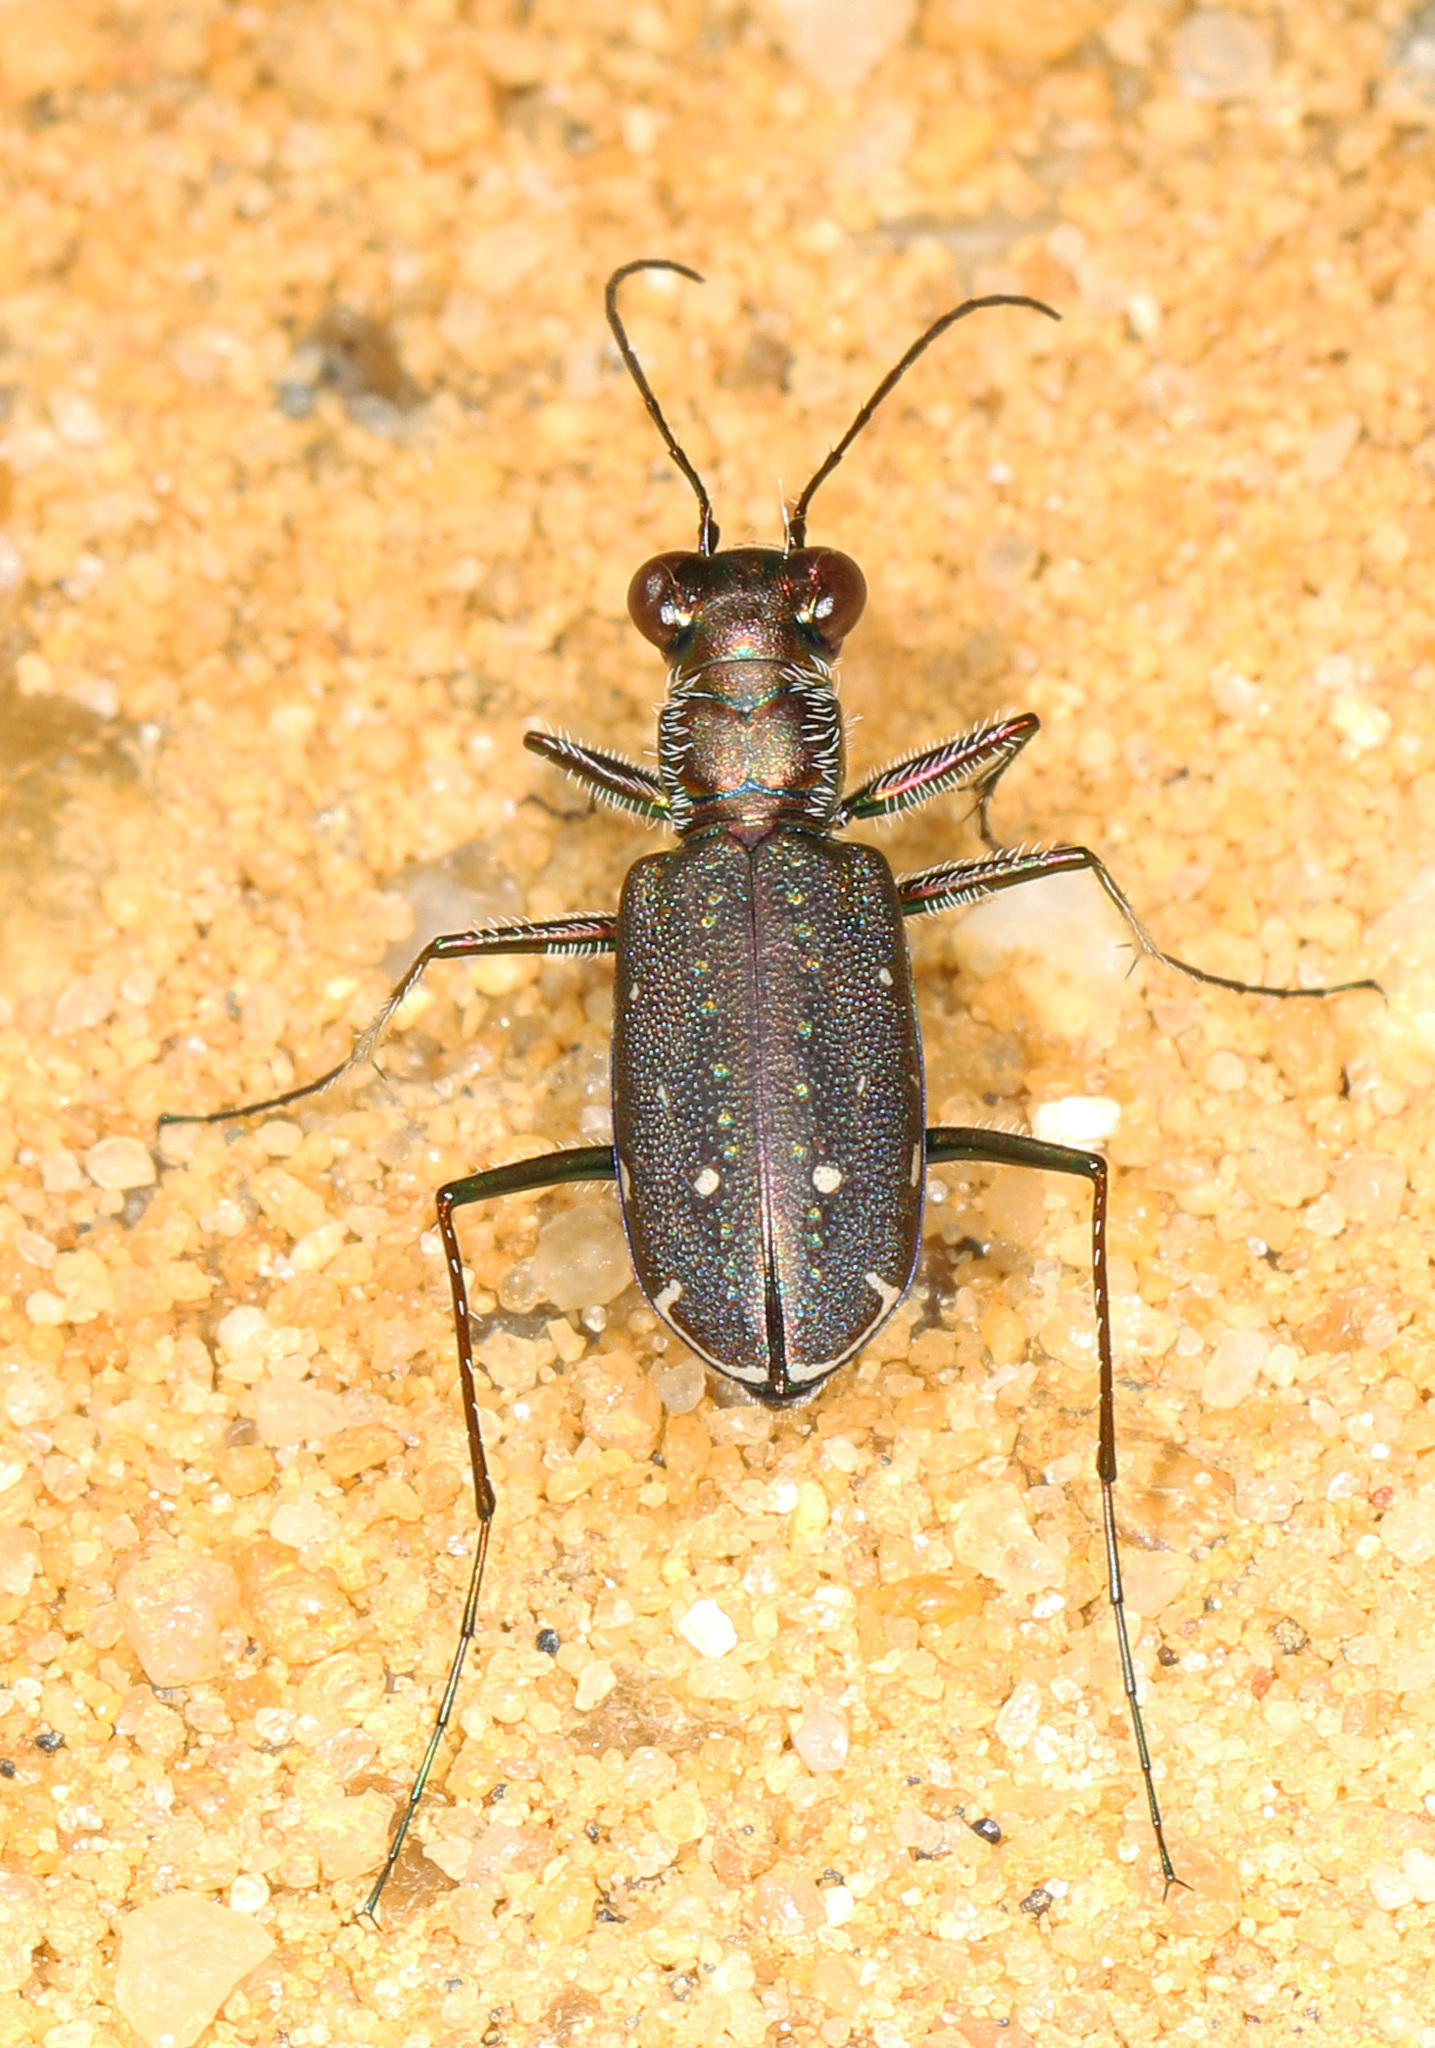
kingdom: Animalia
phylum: Arthropoda
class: Insecta
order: Coleoptera
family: Carabidae
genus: Cicindela
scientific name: Cicindela punctulata
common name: Punctured tiger beetle
